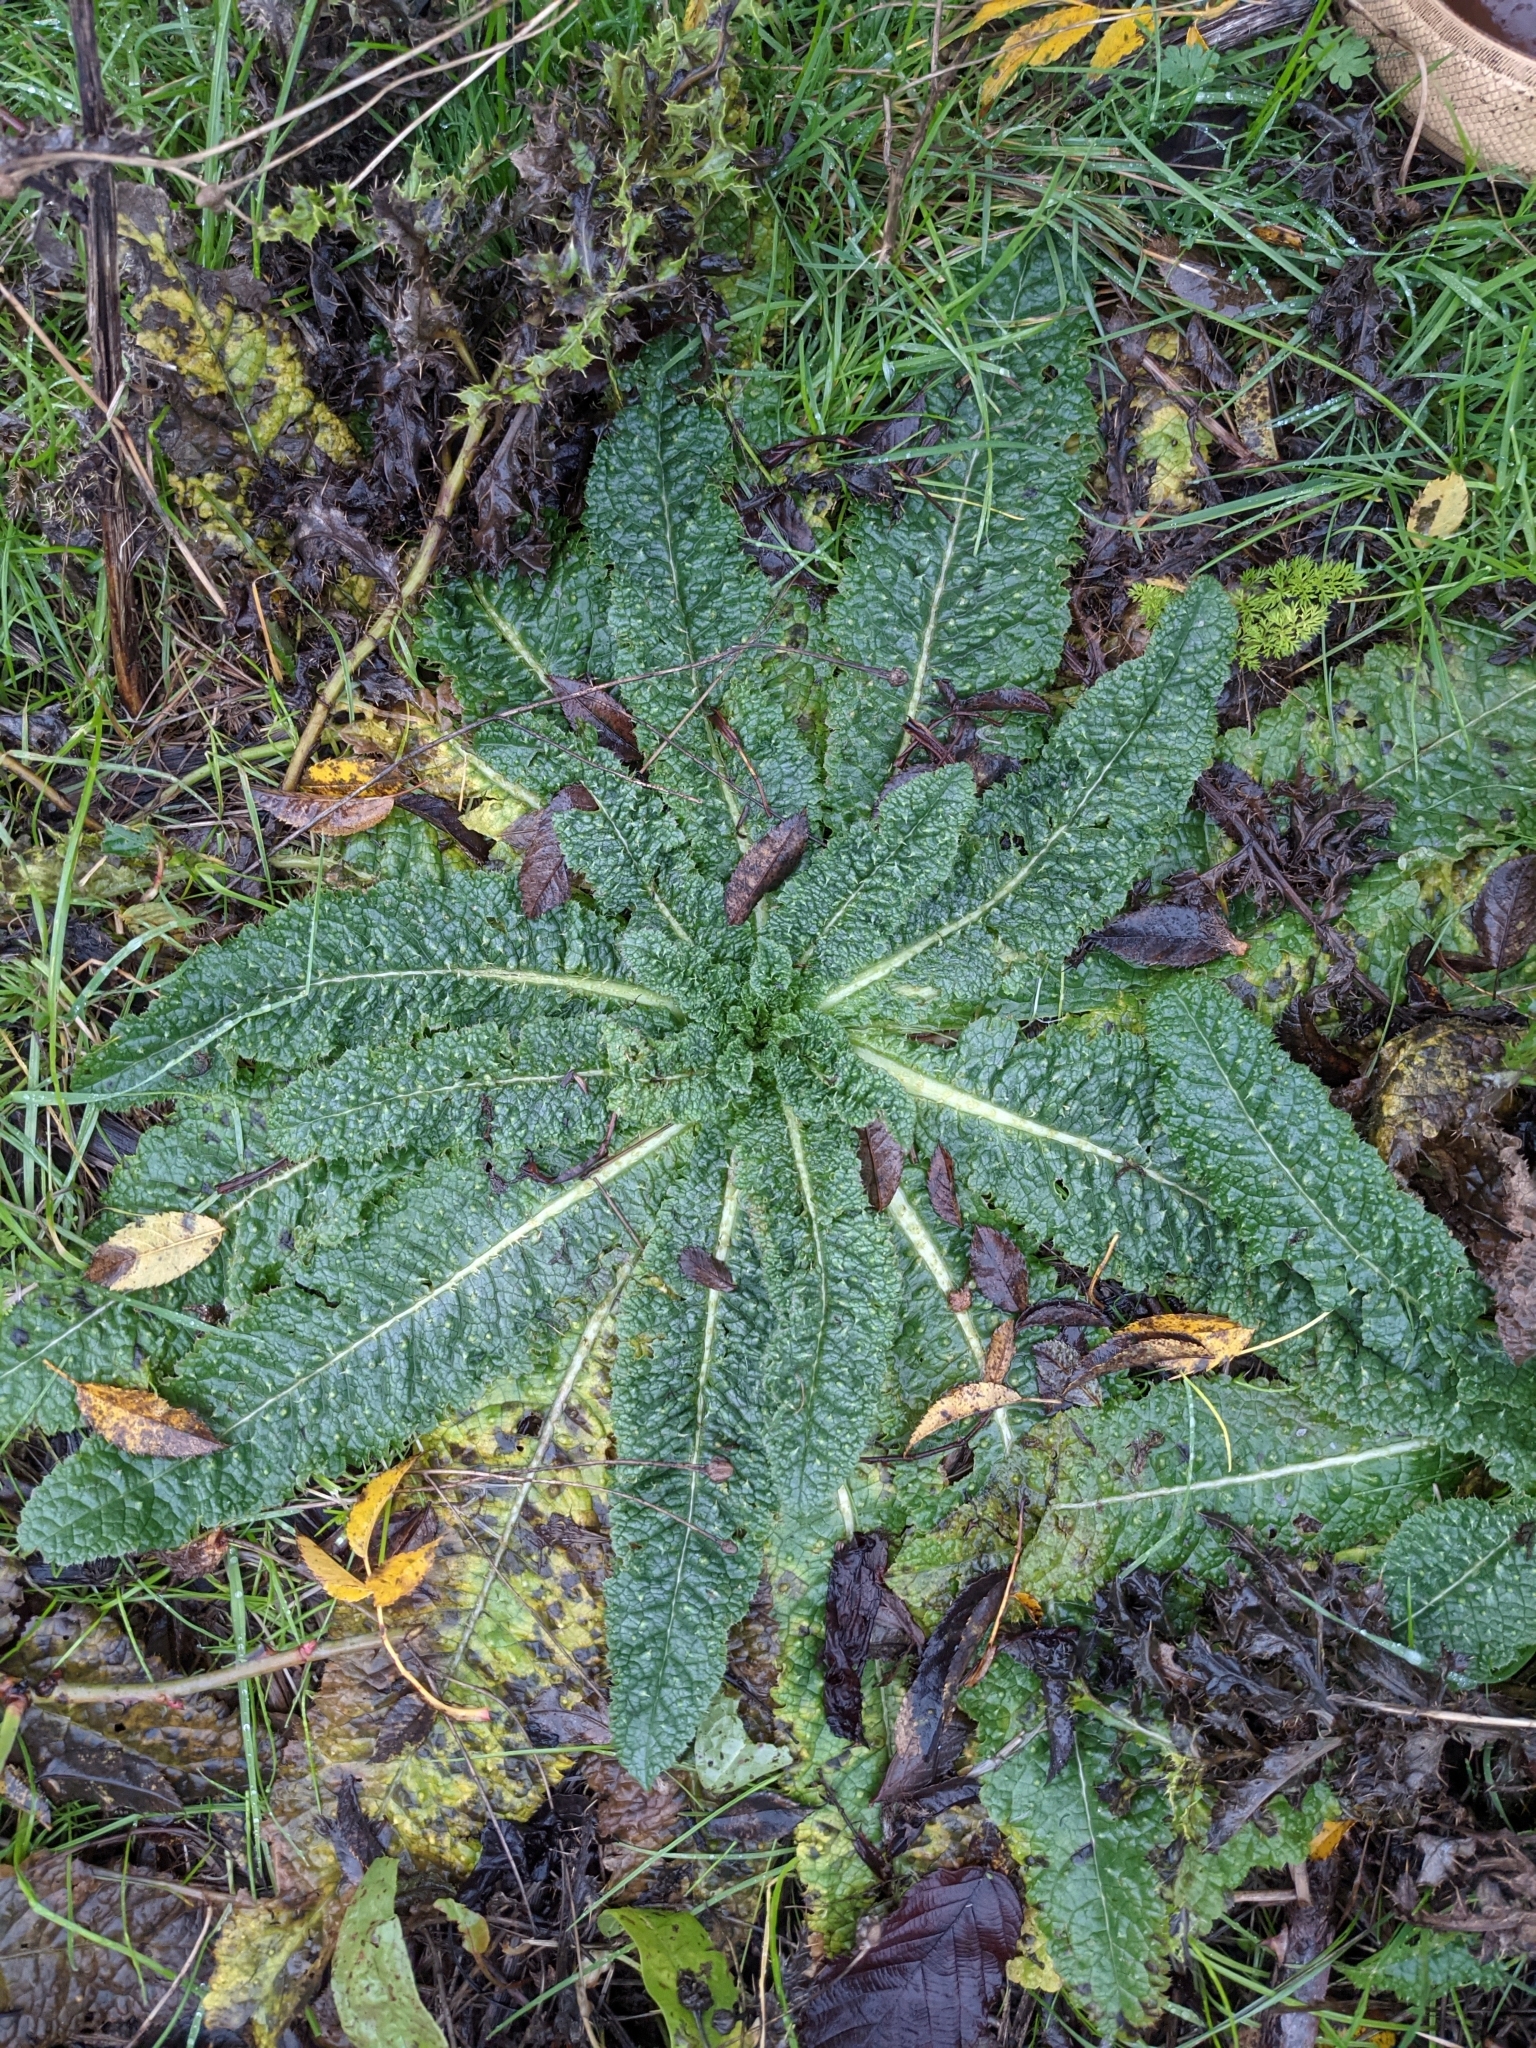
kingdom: Plantae
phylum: Tracheophyta
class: Magnoliopsida
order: Dipsacales
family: Caprifoliaceae
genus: Dipsacus
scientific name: Dipsacus fullonum
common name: Teasel
